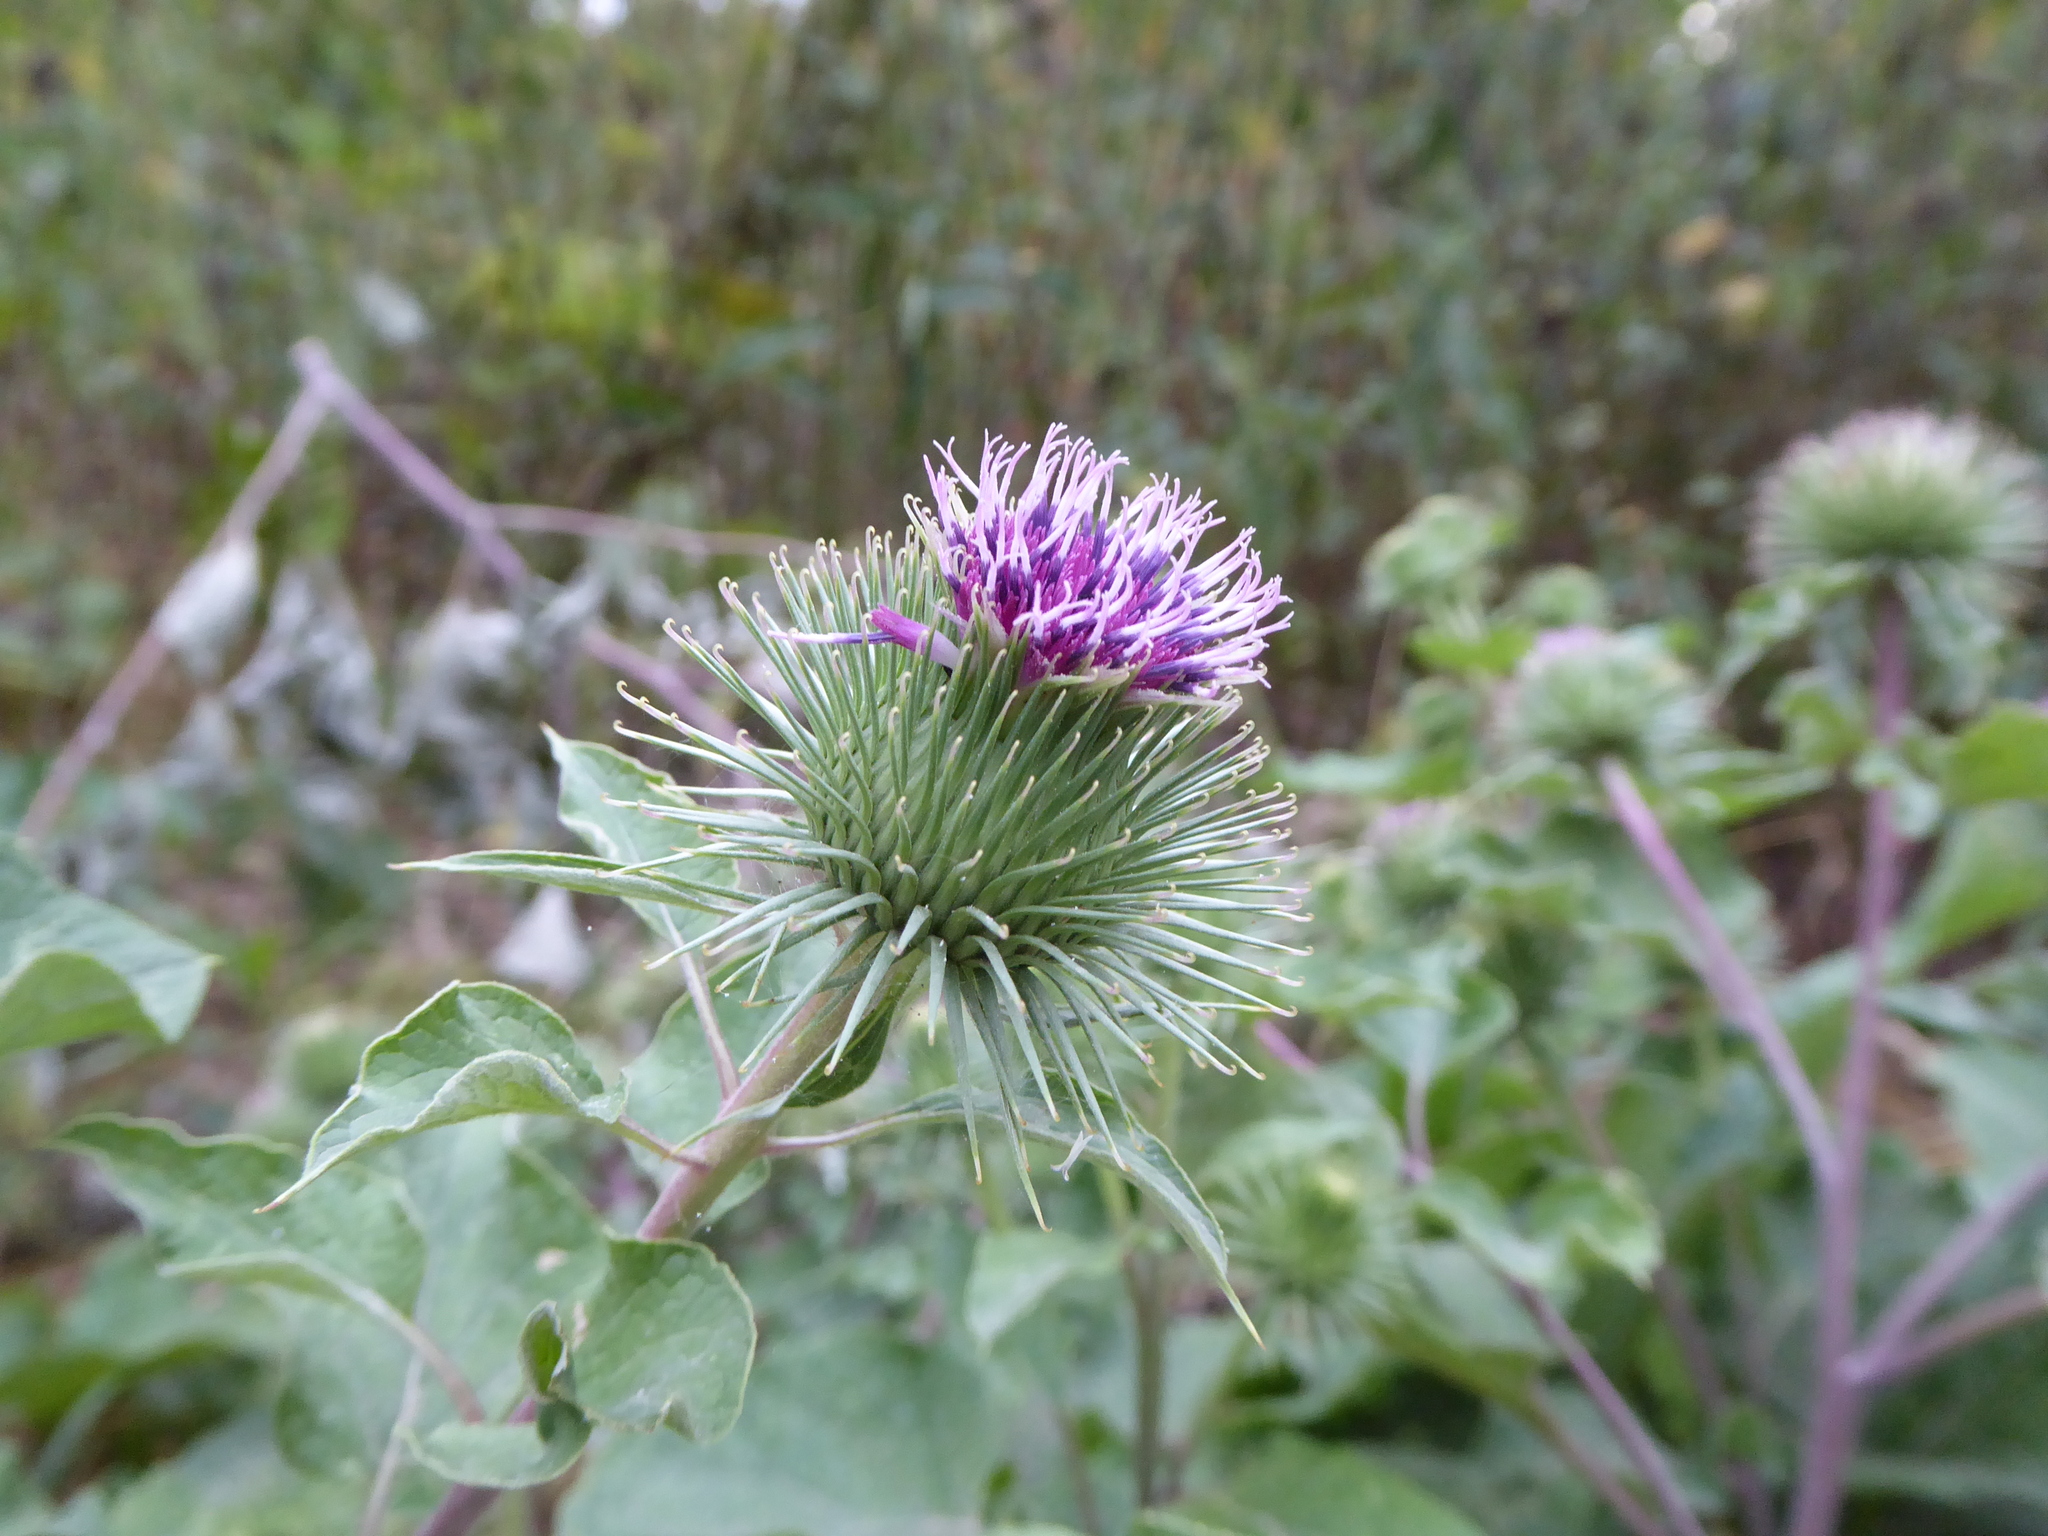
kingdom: Plantae
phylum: Tracheophyta
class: Magnoliopsida
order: Asterales
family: Asteraceae
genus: Arctium
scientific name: Arctium lappa
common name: Greater burdock
